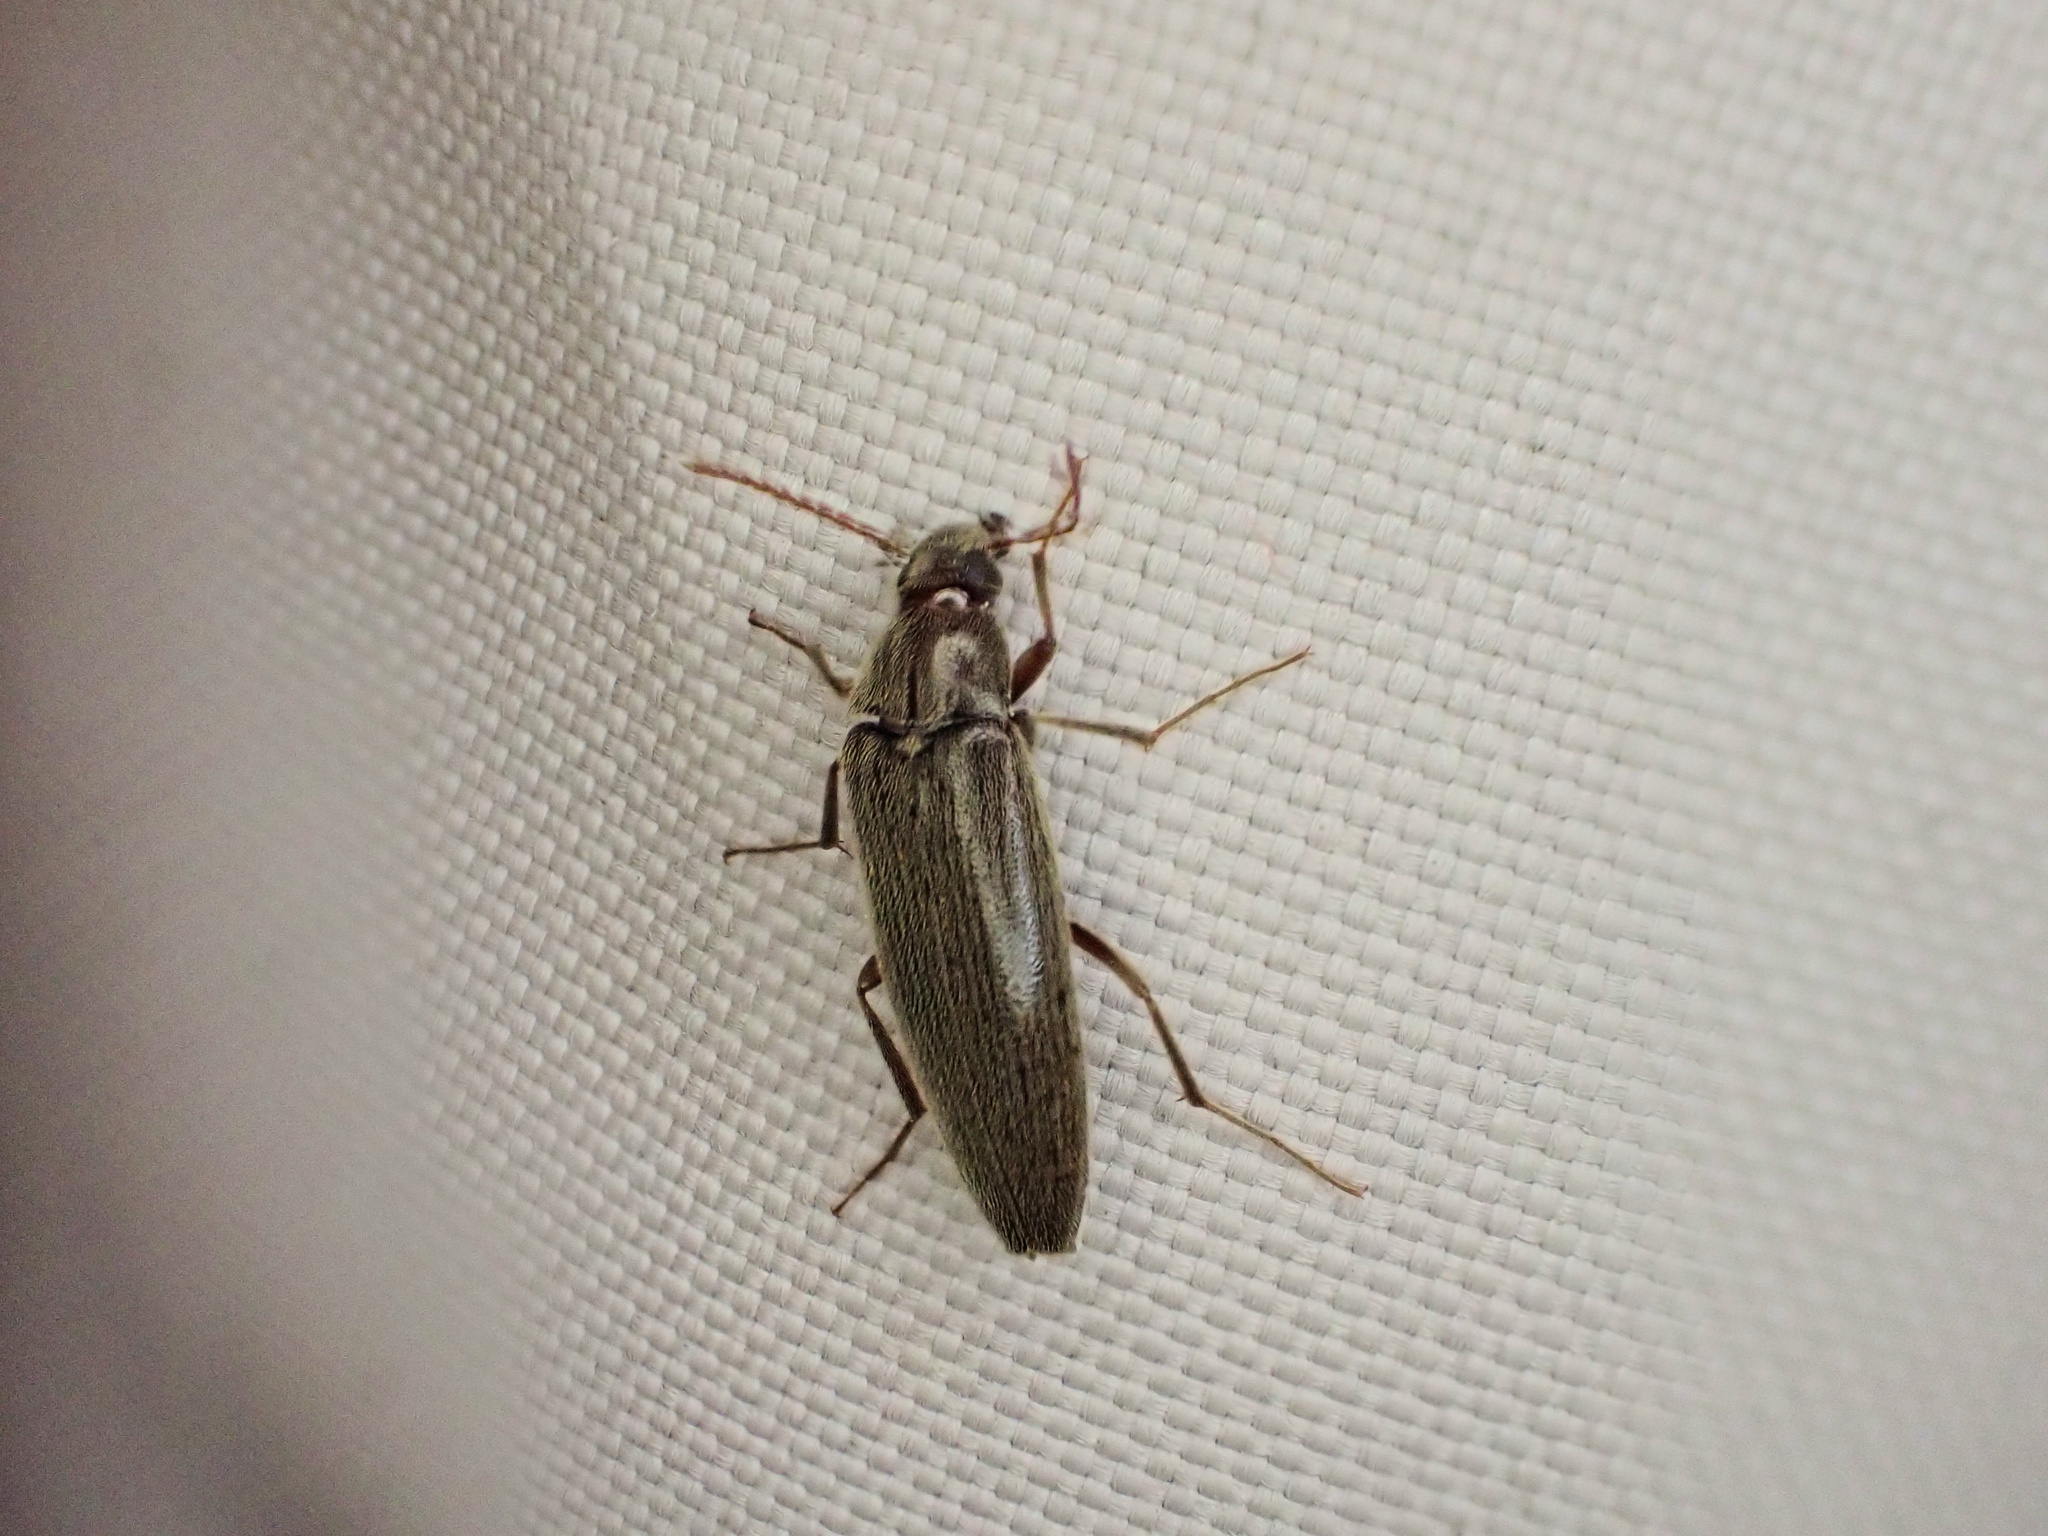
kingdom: Animalia
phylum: Arthropoda
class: Insecta
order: Coleoptera
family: Synchroidae
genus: Synchroa
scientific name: Synchroa punctata
